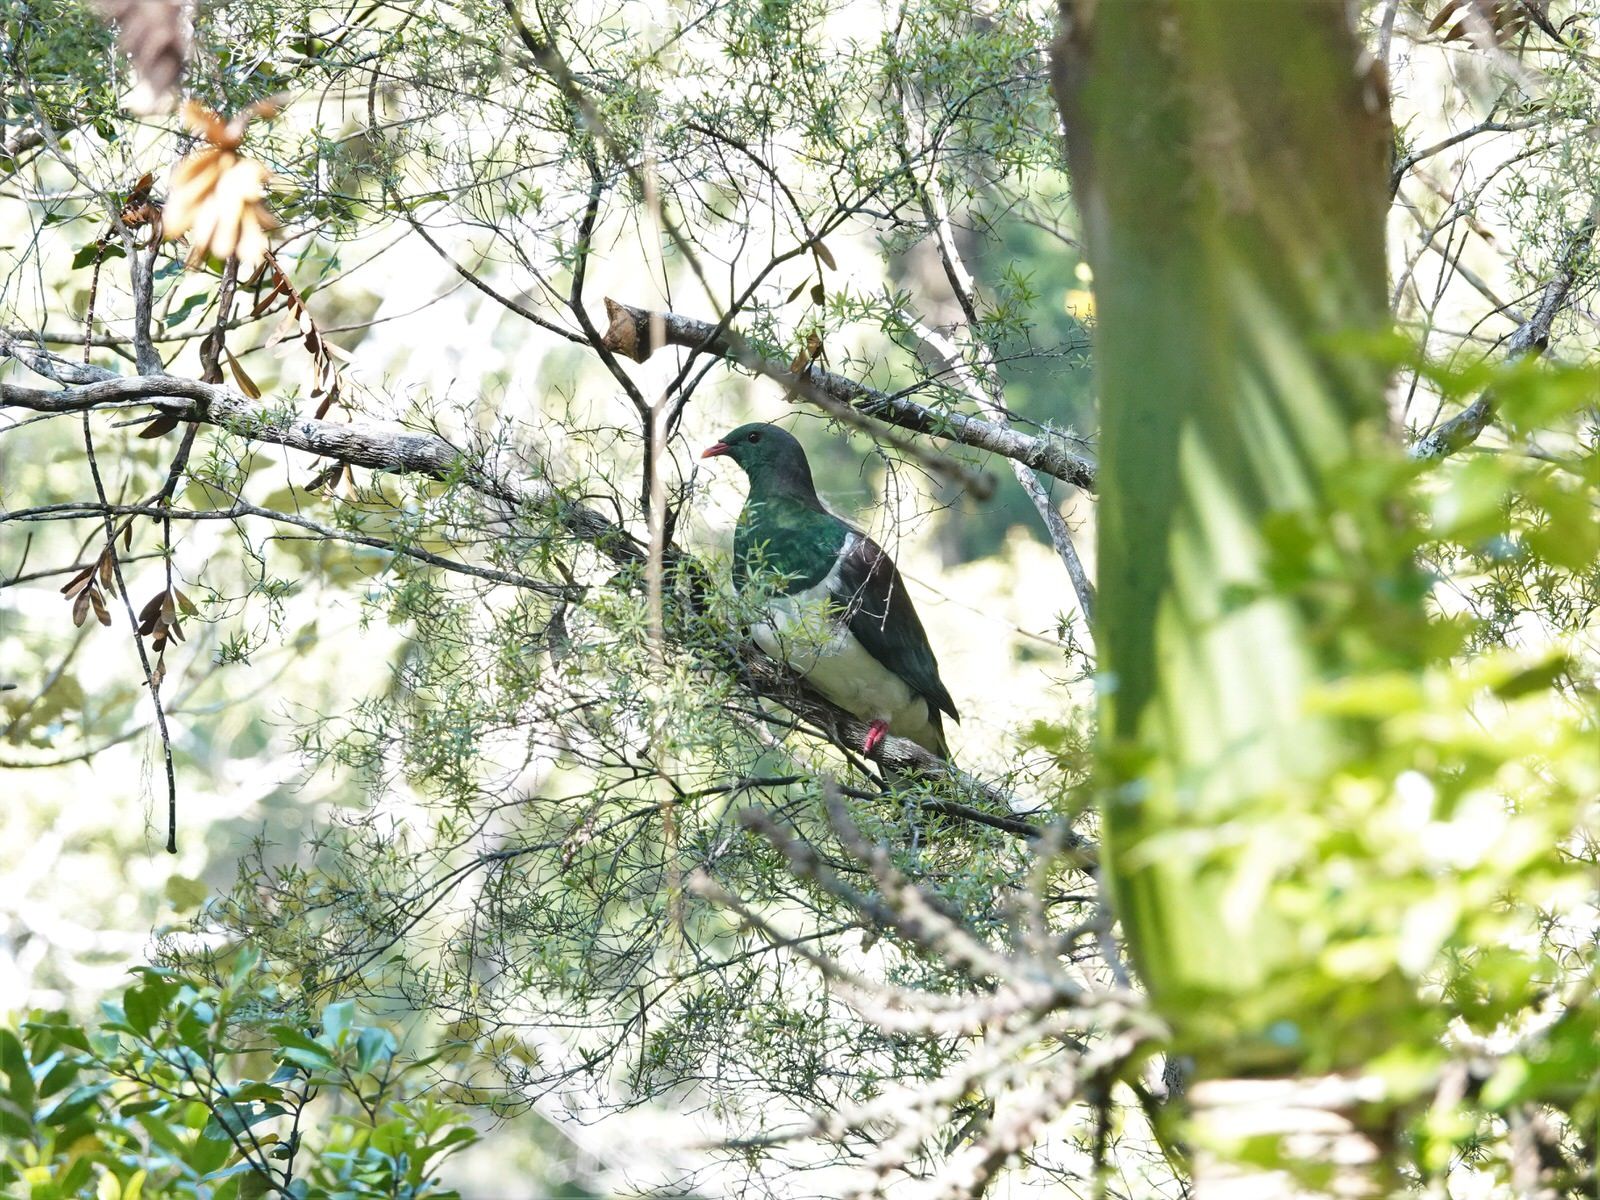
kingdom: Animalia
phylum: Chordata
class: Aves
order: Columbiformes
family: Columbidae
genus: Hemiphaga
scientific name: Hemiphaga novaeseelandiae
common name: New zealand pigeon
